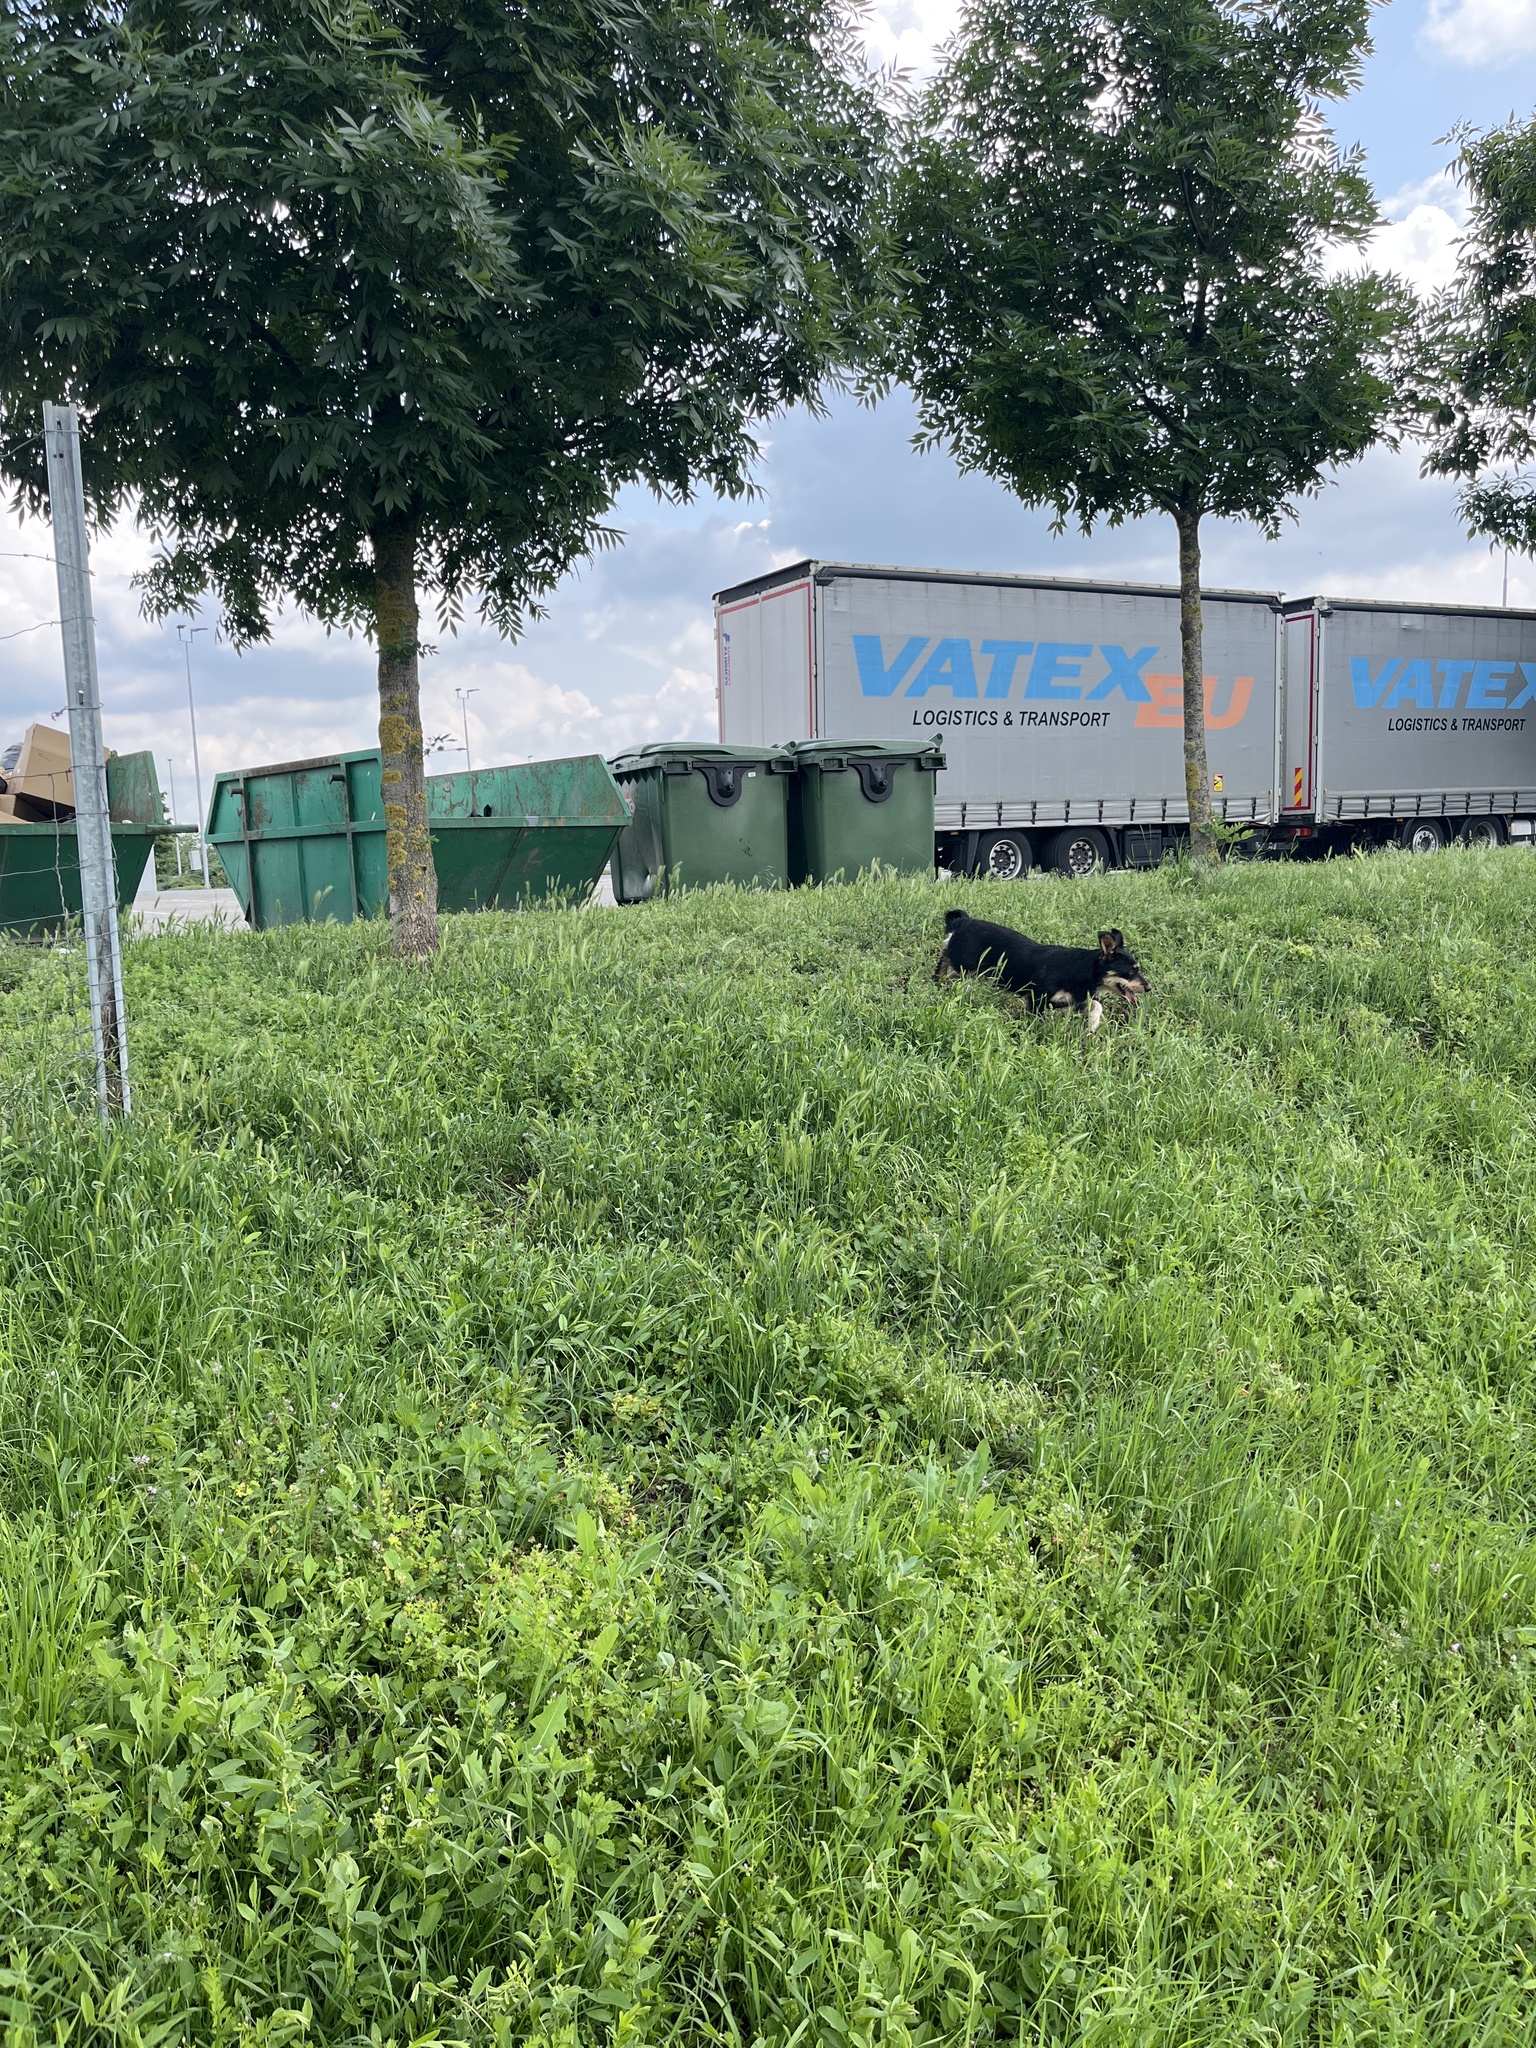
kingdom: Animalia
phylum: Chordata
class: Mammalia
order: Carnivora
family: Canidae
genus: Canis
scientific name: Canis lupus
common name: Gray wolf
